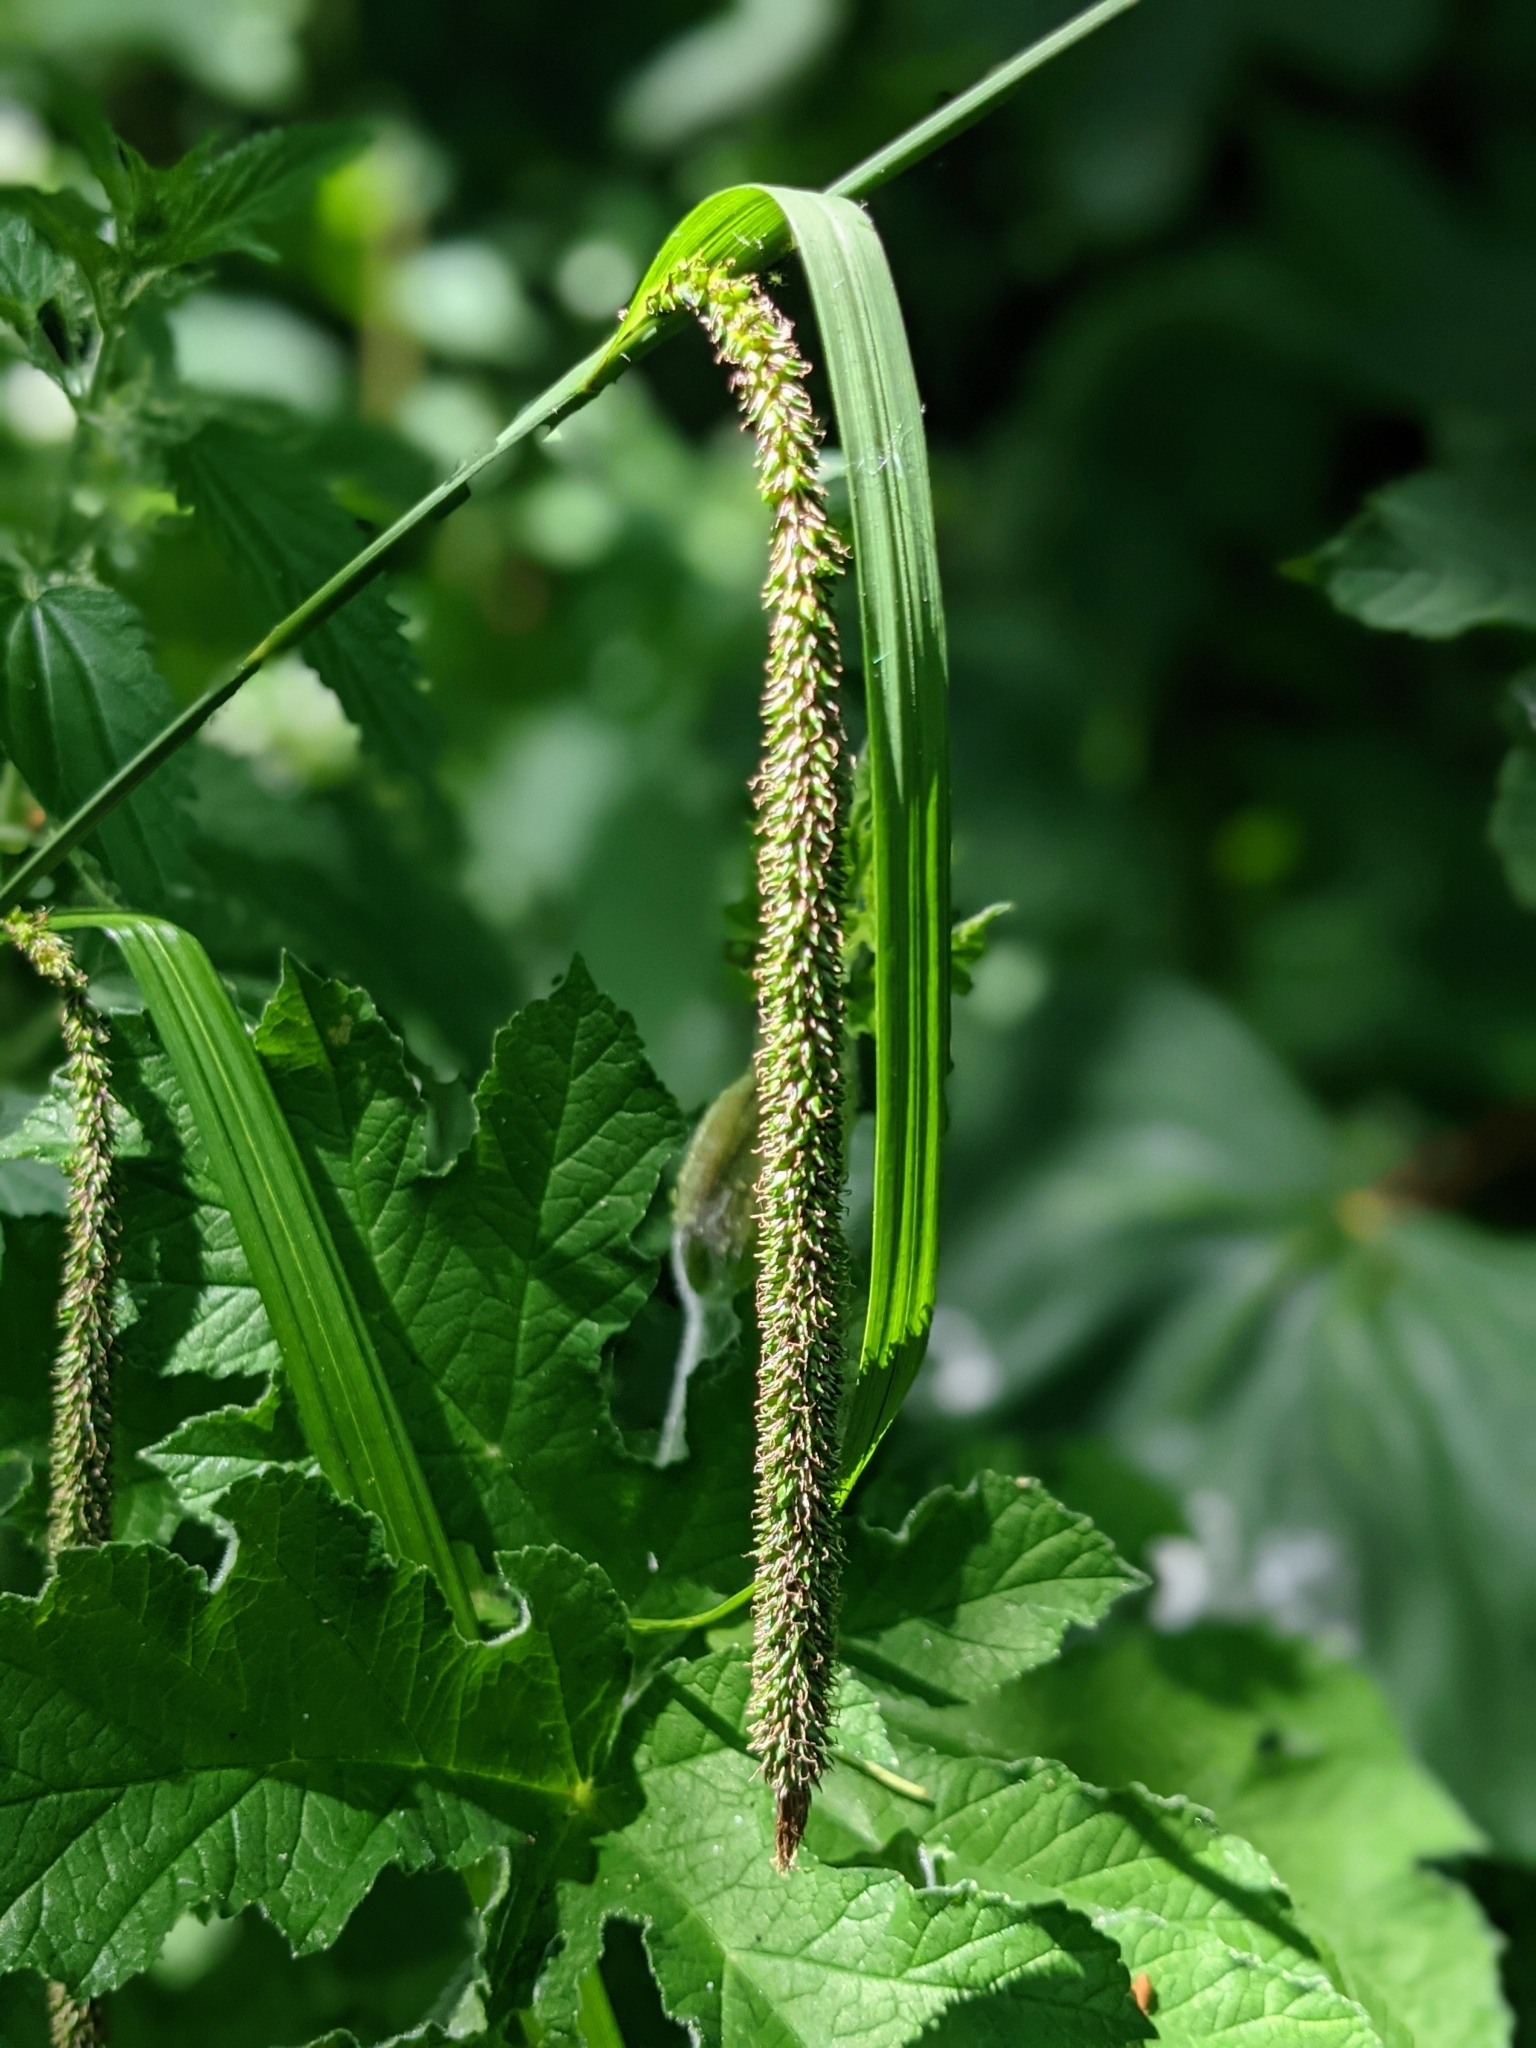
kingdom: Plantae
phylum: Tracheophyta
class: Liliopsida
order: Poales
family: Cyperaceae
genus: Carex
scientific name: Carex pendula
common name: Pendulous sedge
